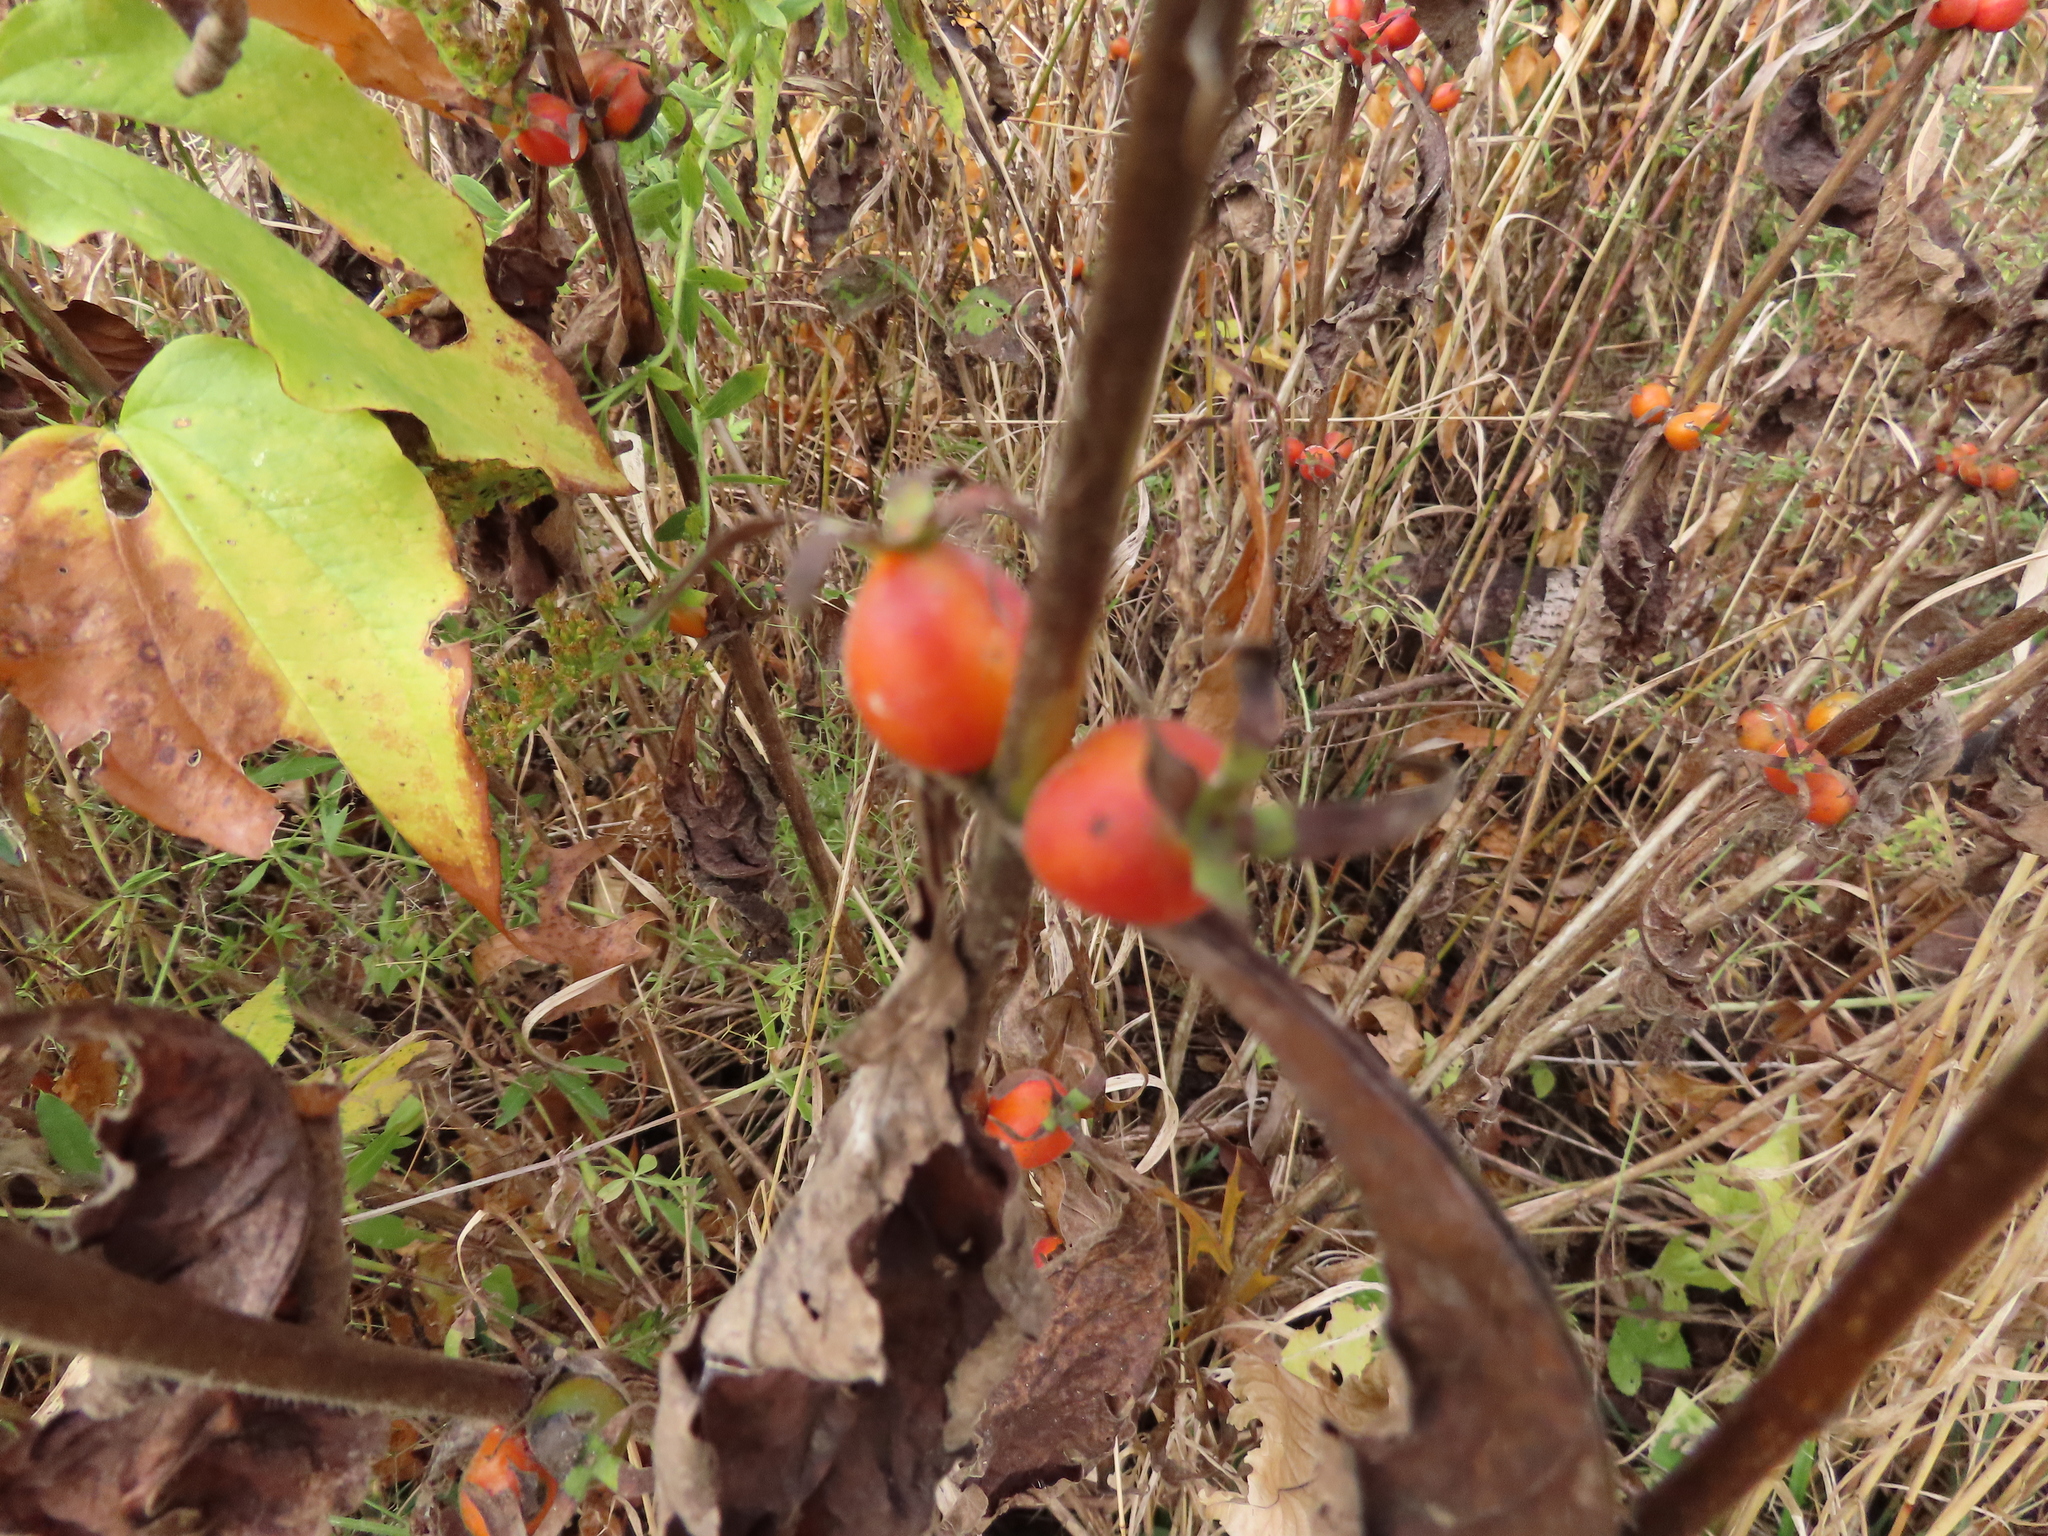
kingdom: Plantae
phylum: Tracheophyta
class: Magnoliopsida
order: Dipsacales
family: Caprifoliaceae
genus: Triosteum
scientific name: Triosteum aurantiacum
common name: Coffee tinker's-weed
